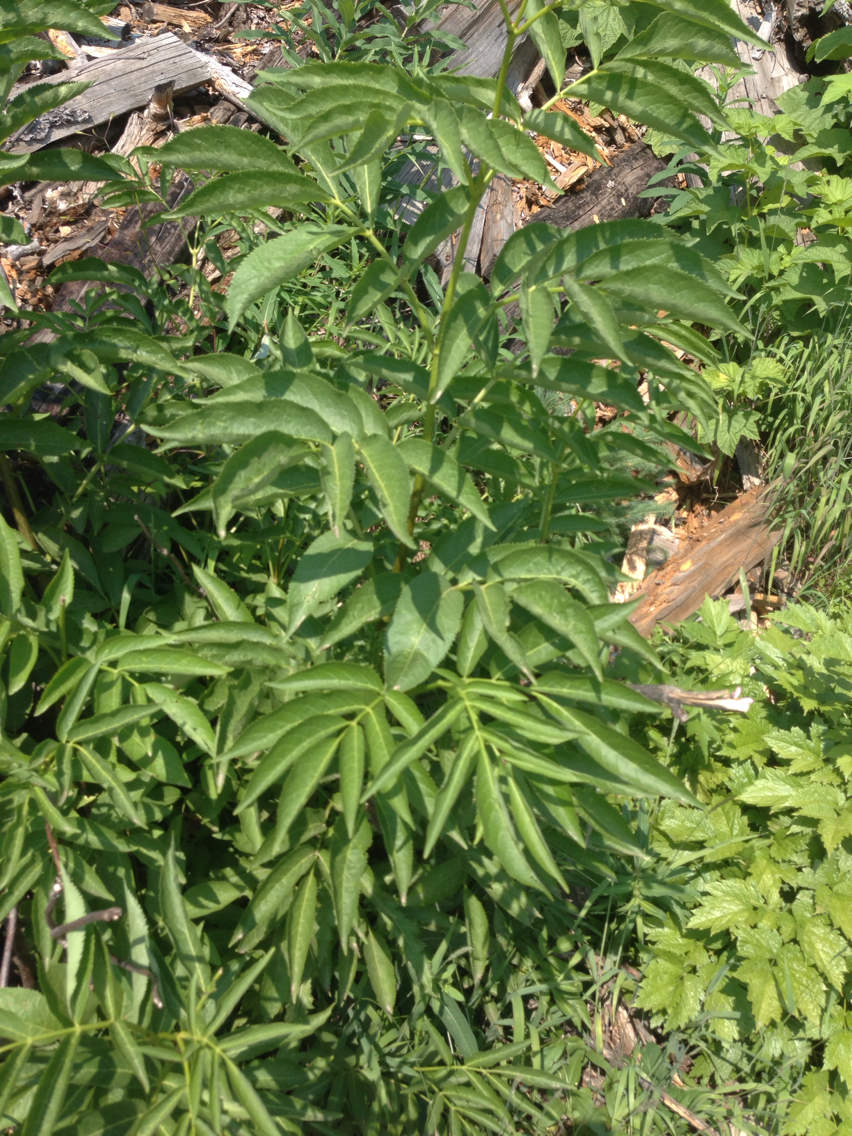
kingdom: Plantae
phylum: Tracheophyta
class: Magnoliopsida
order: Dipsacales
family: Viburnaceae
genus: Sambucus
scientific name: Sambucus racemosa
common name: Red-berried elder
